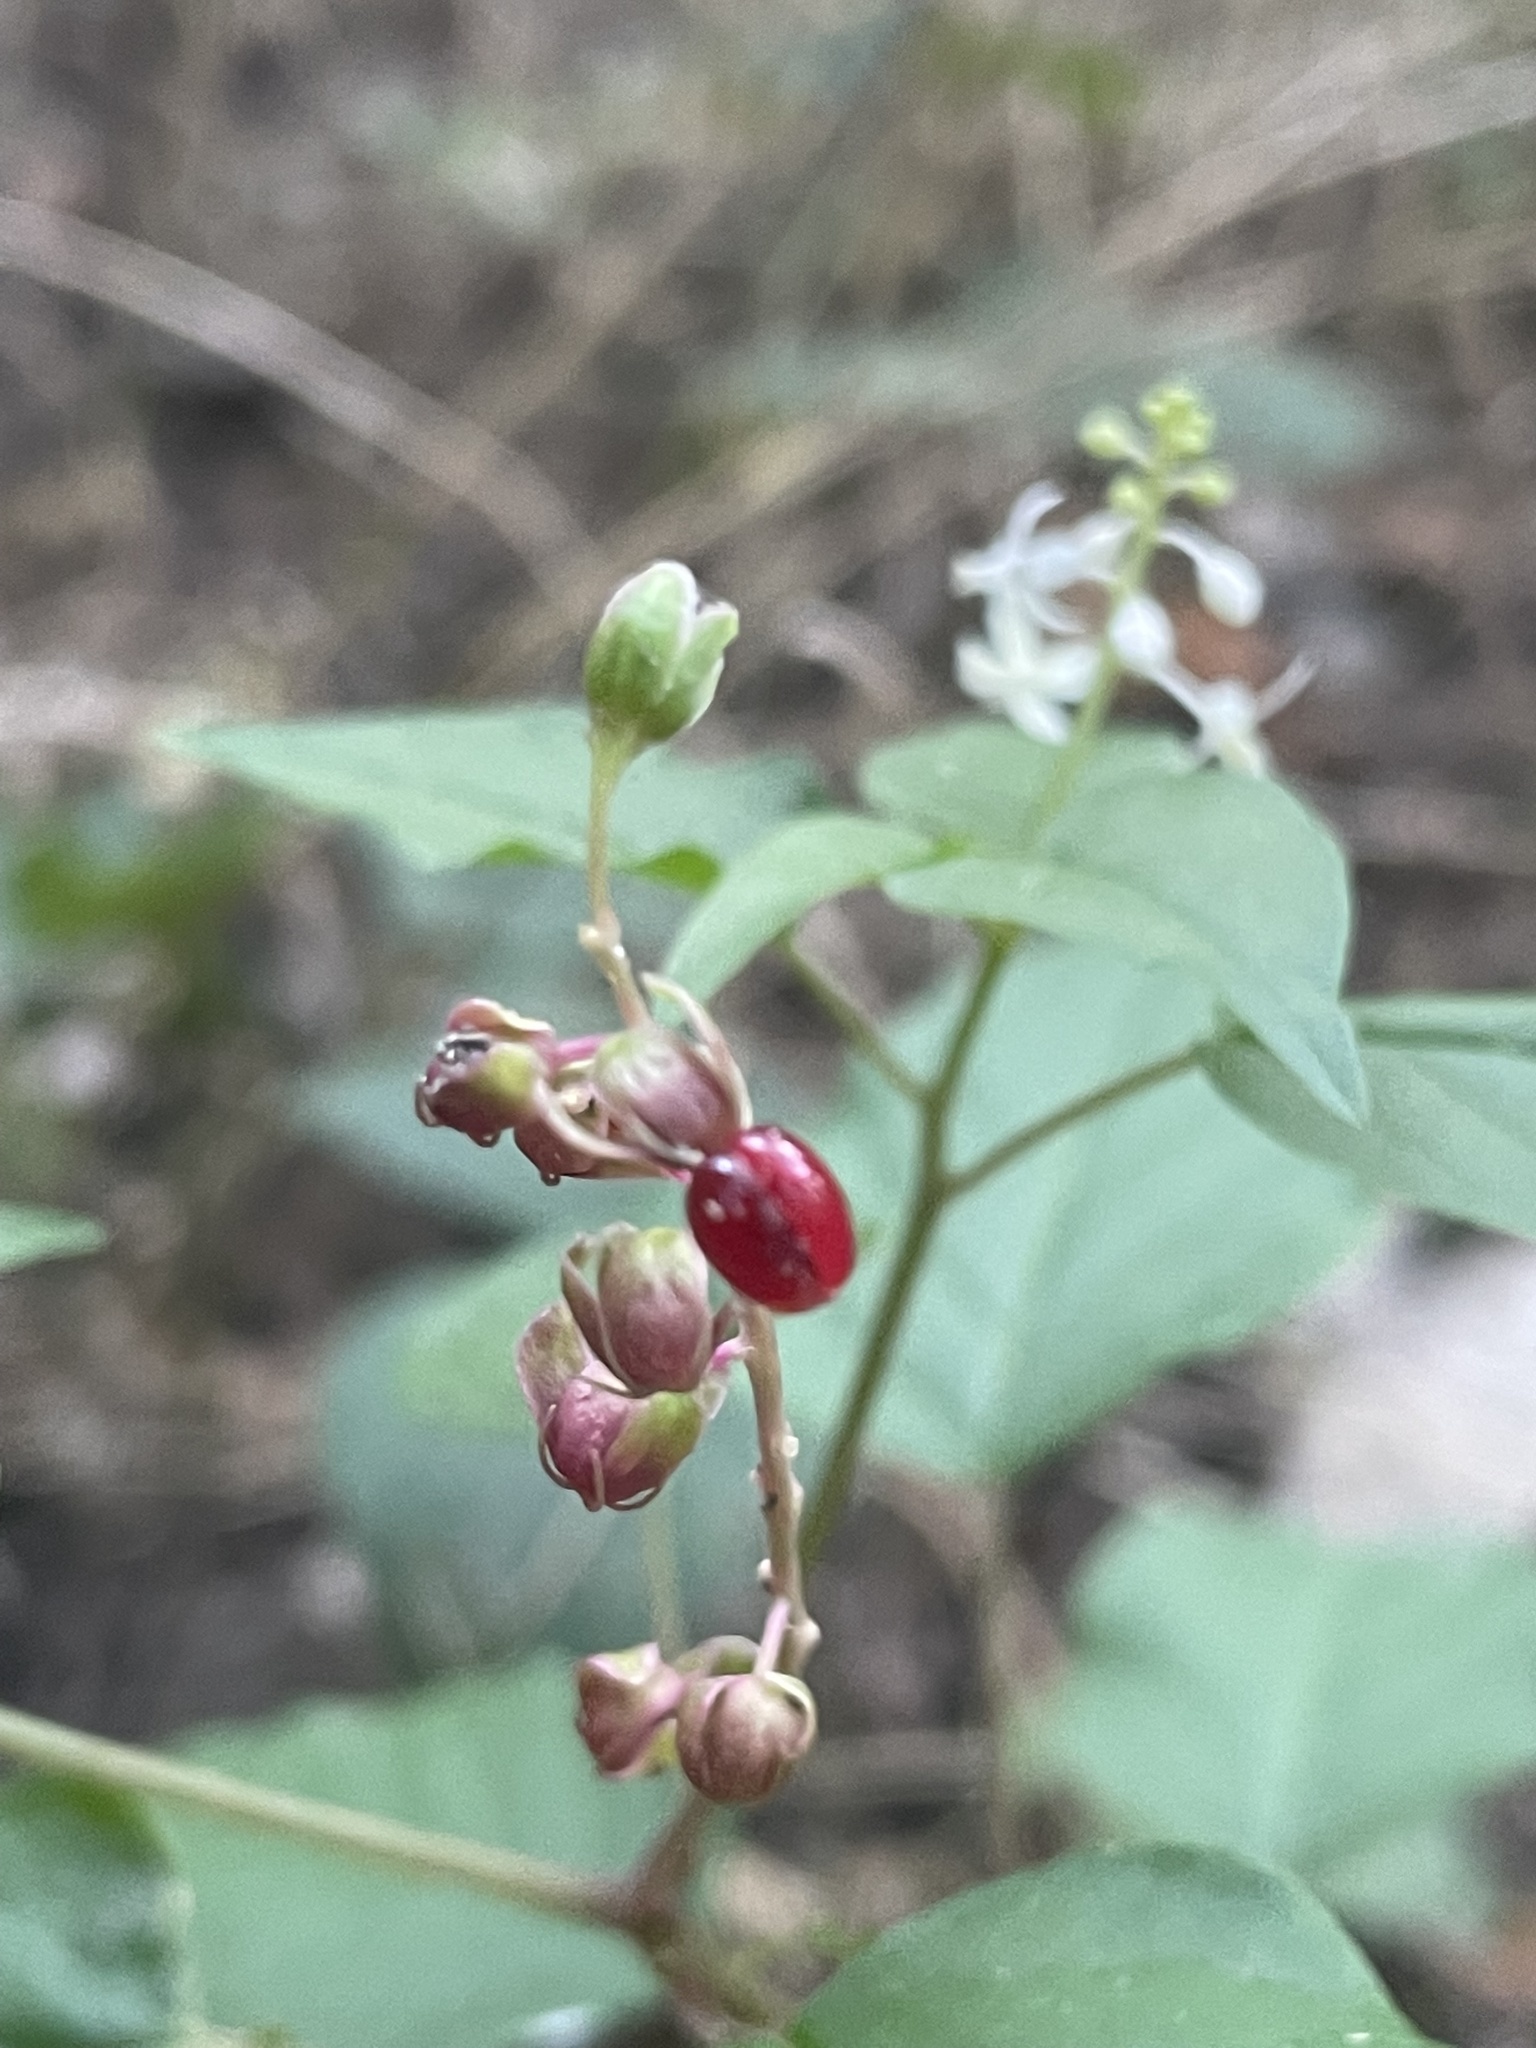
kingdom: Plantae
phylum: Tracheophyta
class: Magnoliopsida
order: Caryophyllales
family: Phytolaccaceae
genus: Rivina
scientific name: Rivina humilis
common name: Rougeplant
